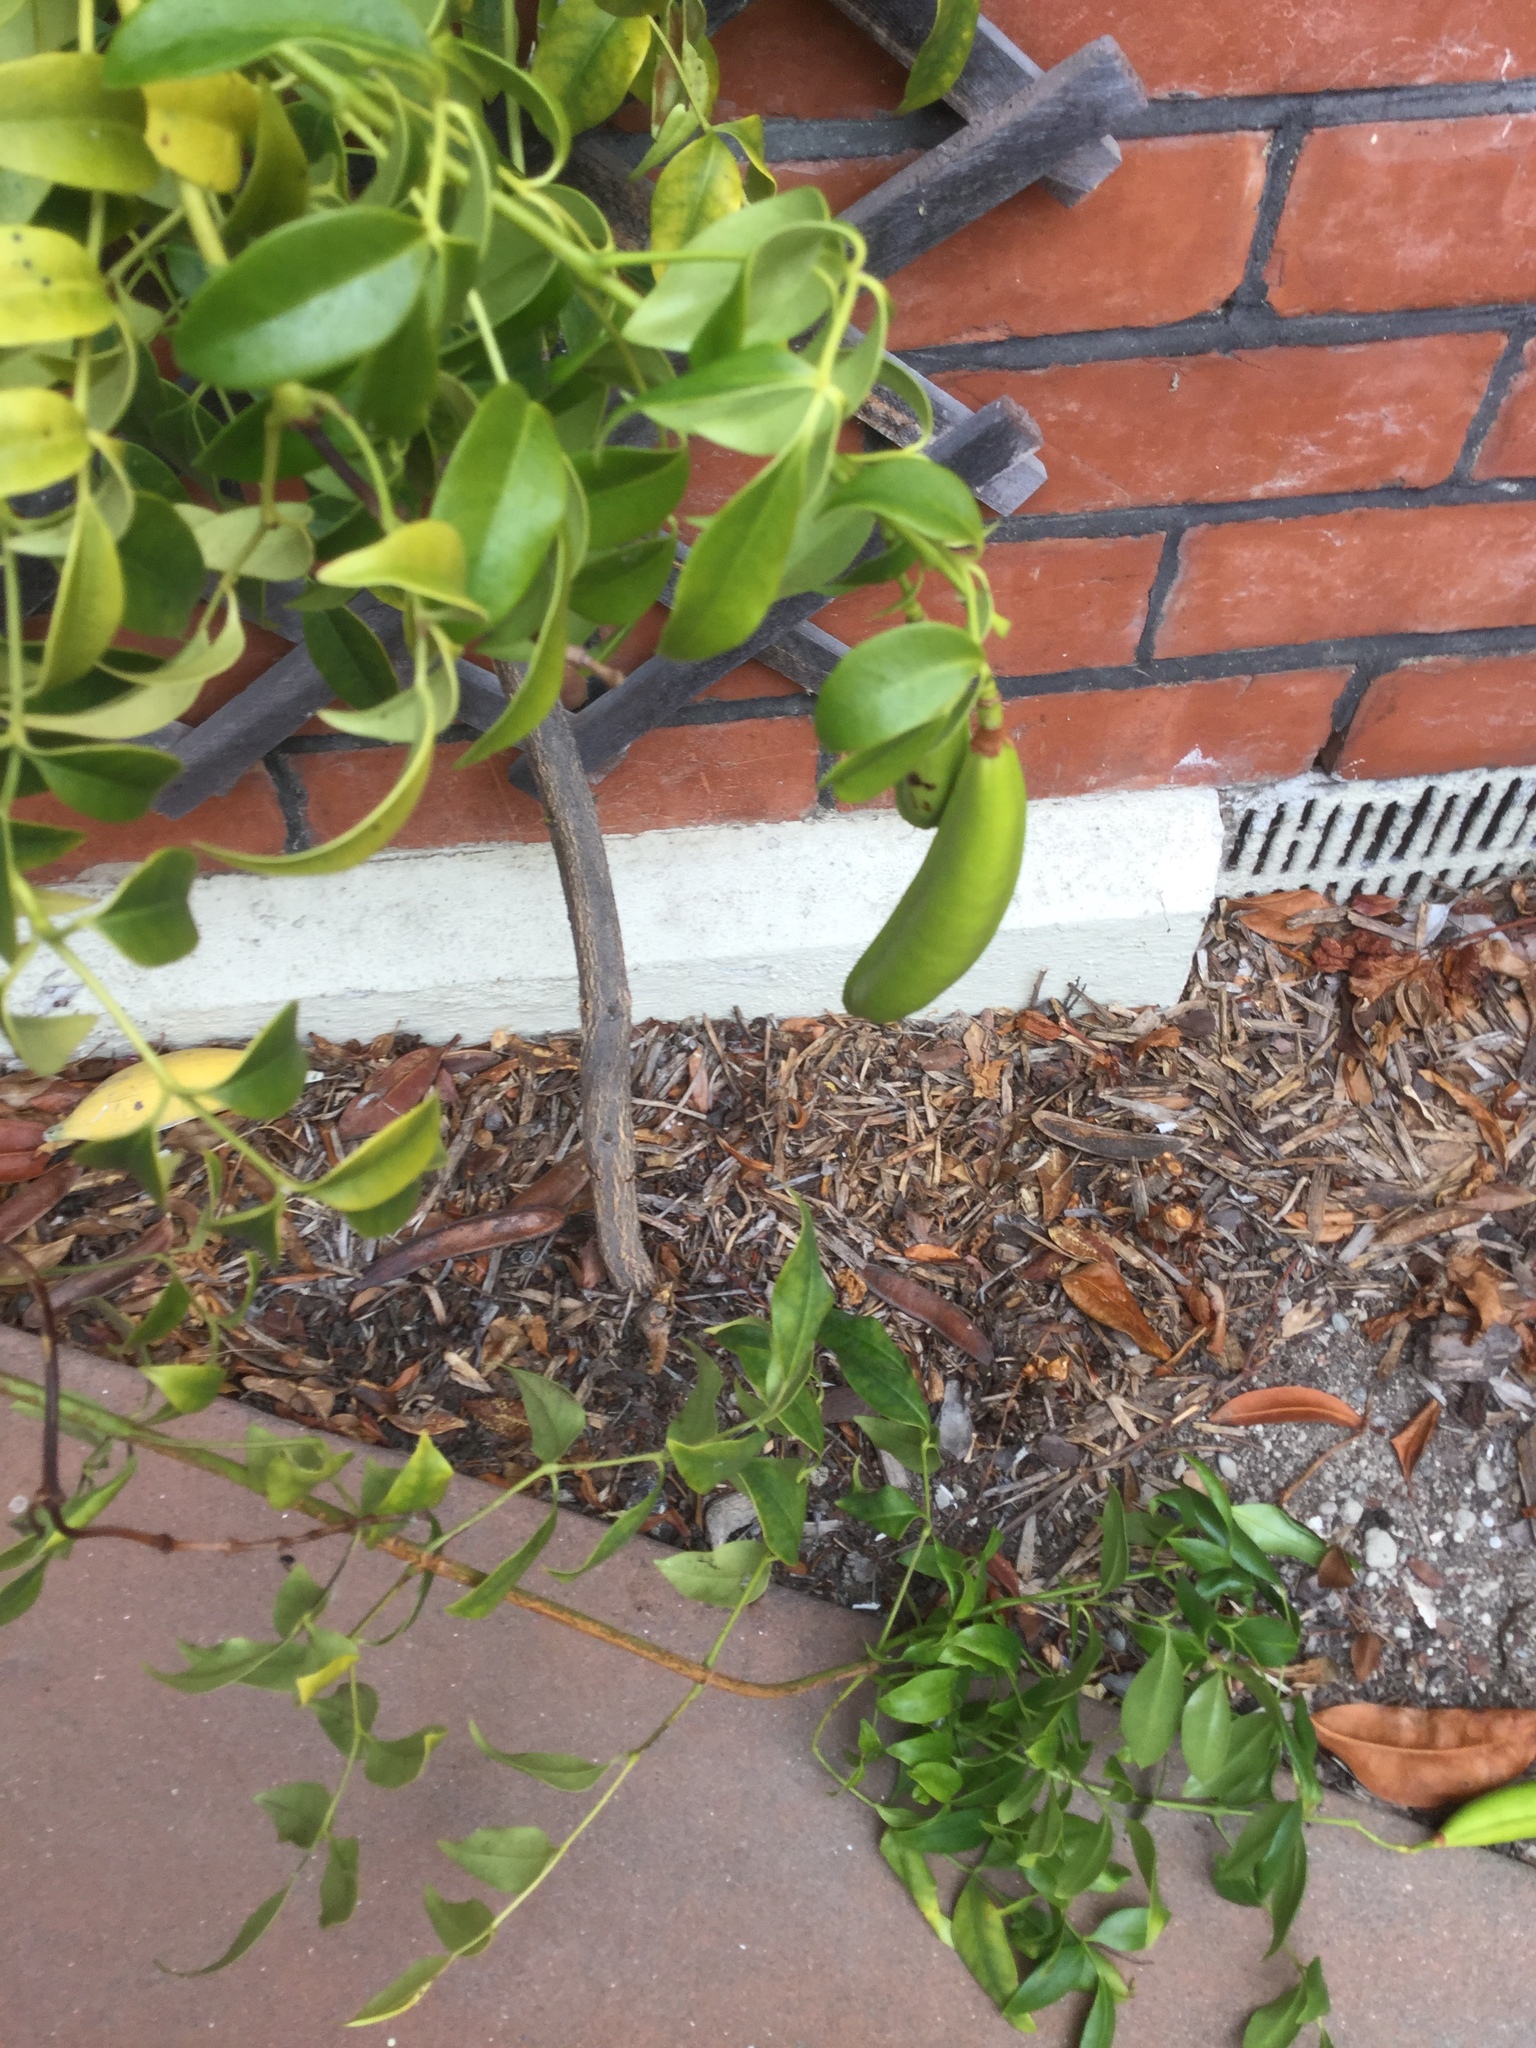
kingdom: Plantae
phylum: Tracheophyta
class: Magnoliopsida
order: Lamiales
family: Bignoniaceae
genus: Pandorea
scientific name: Pandorea jasminoides
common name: Bowerplant
